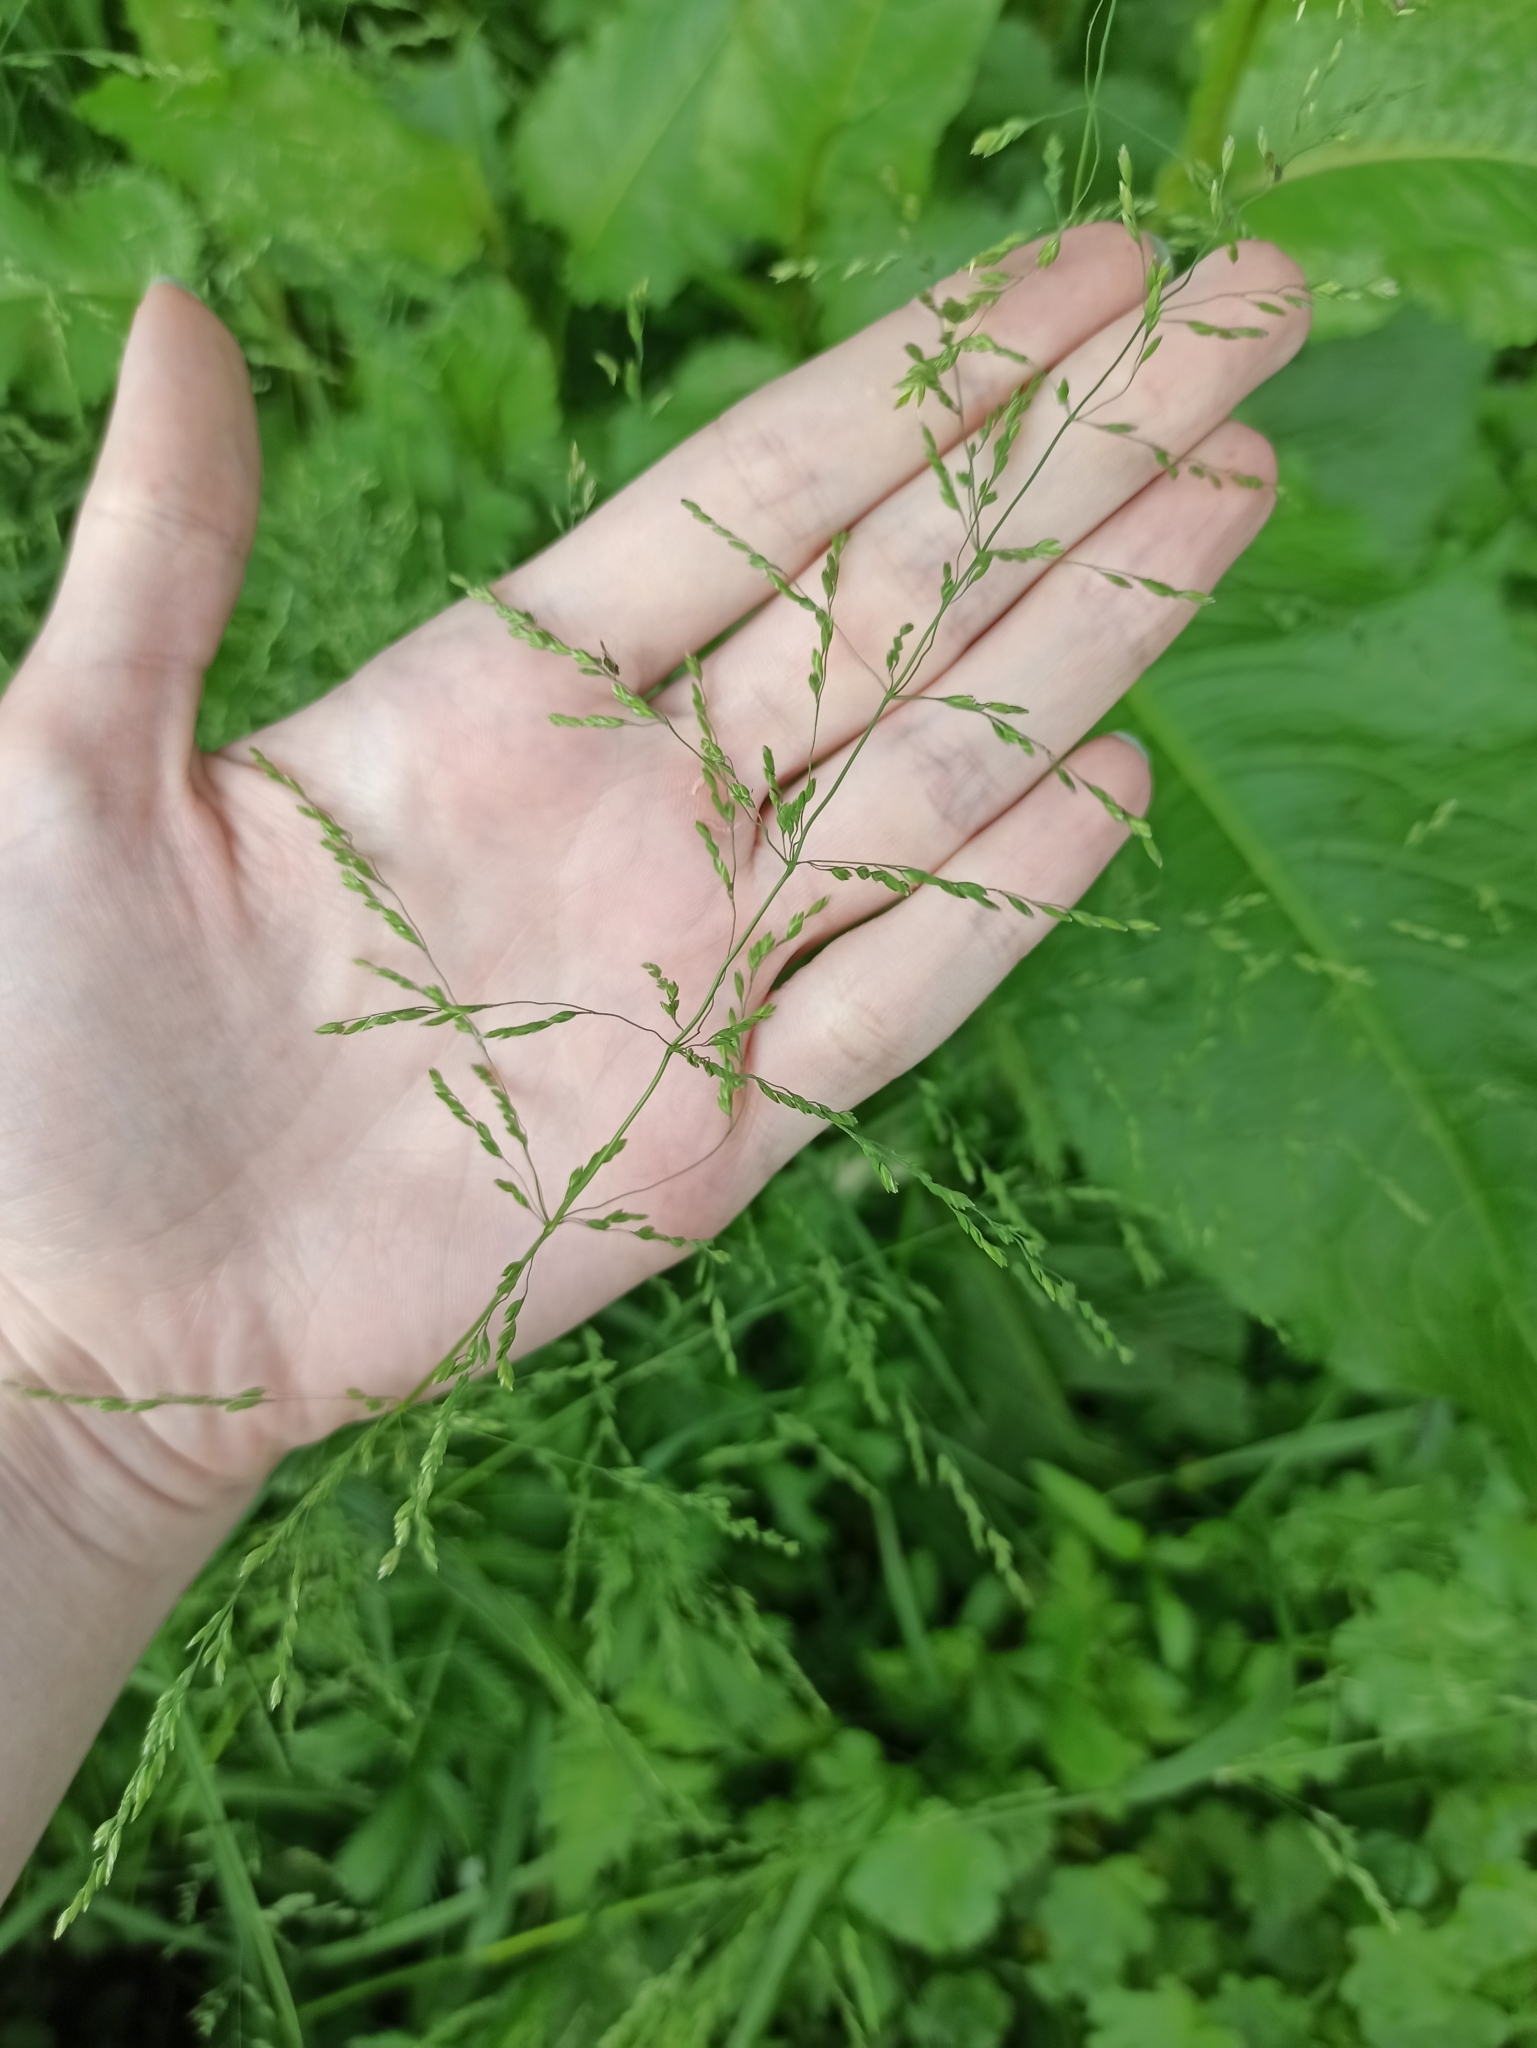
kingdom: Plantae
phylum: Tracheophyta
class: Liliopsida
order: Poales
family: Poaceae
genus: Poa
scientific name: Poa trivialis
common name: Rough bluegrass
